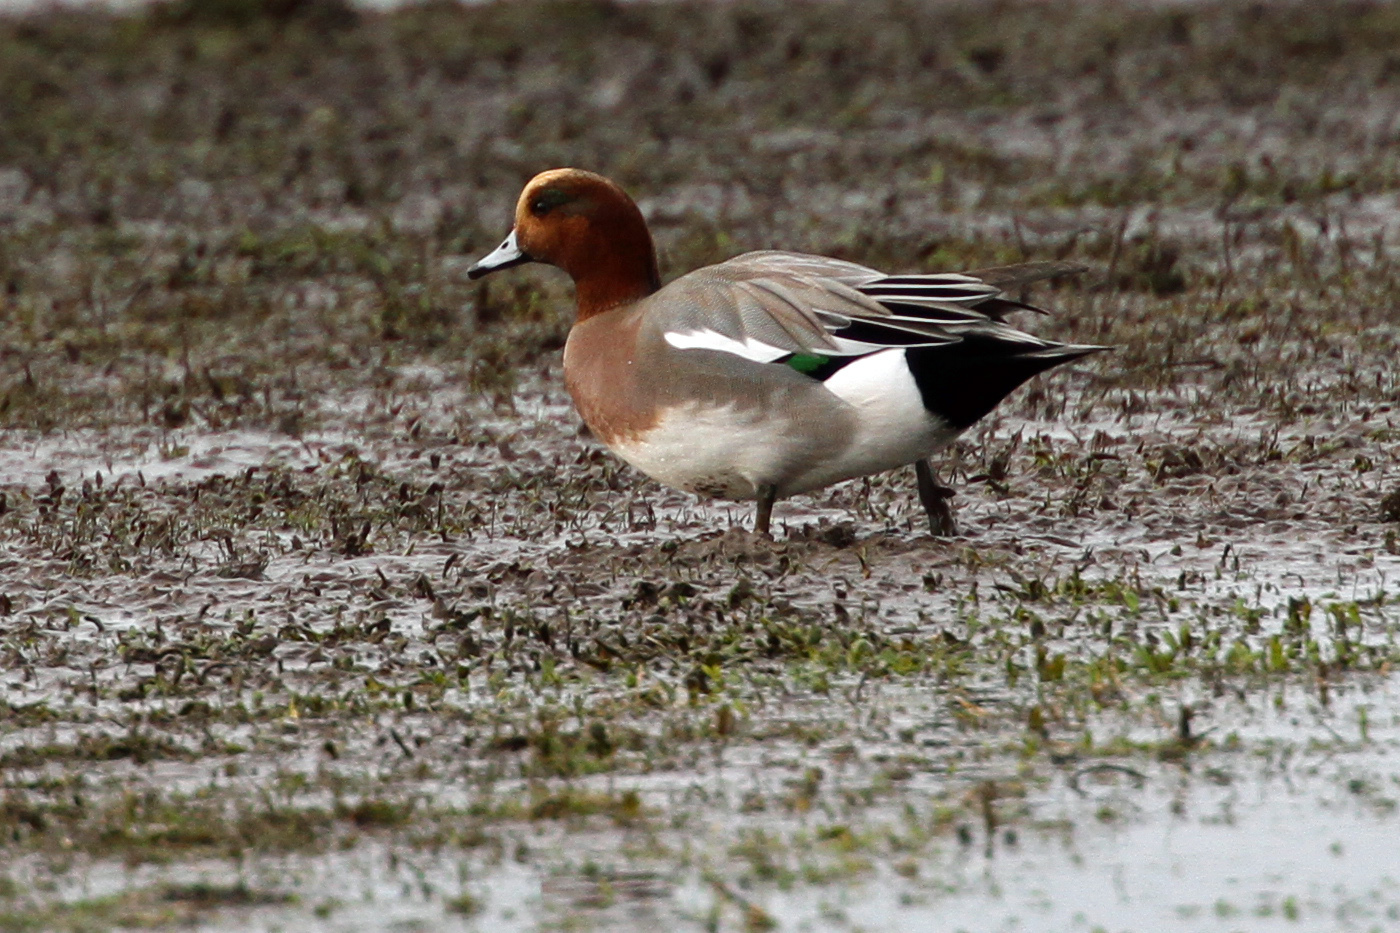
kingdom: Animalia
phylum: Chordata
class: Aves
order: Anseriformes
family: Anatidae
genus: Mareca
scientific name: Mareca penelope
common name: Eurasian wigeon
